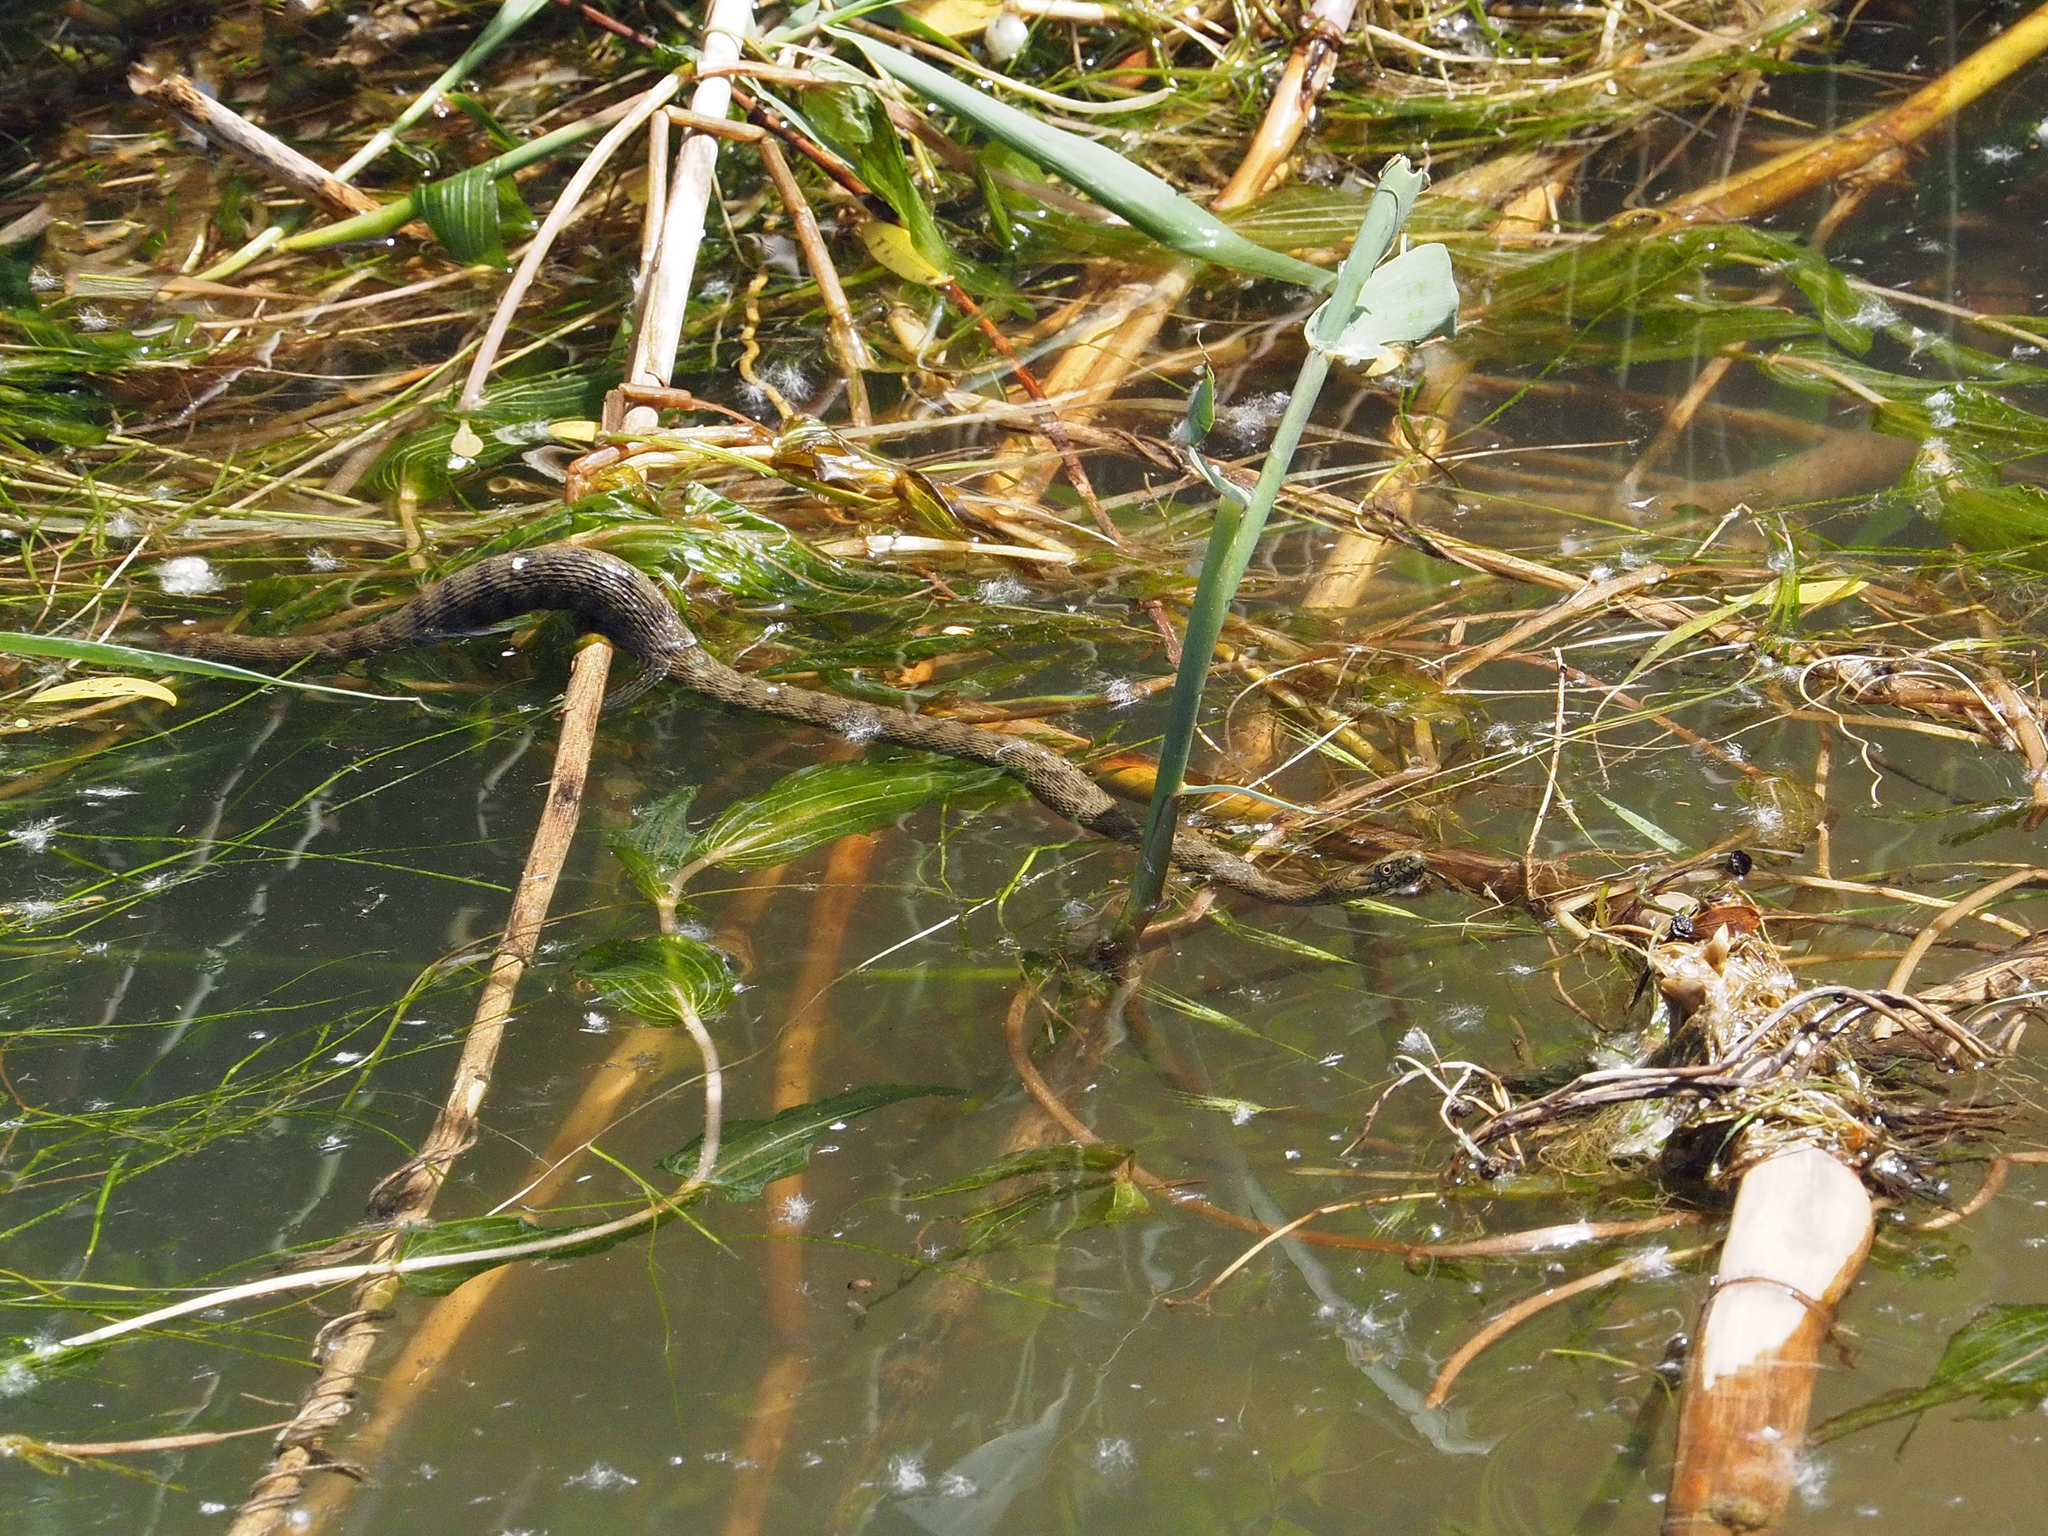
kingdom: Animalia
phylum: Chordata
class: Squamata
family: Colubridae
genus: Natrix
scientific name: Natrix tessellata
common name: Dice snake
